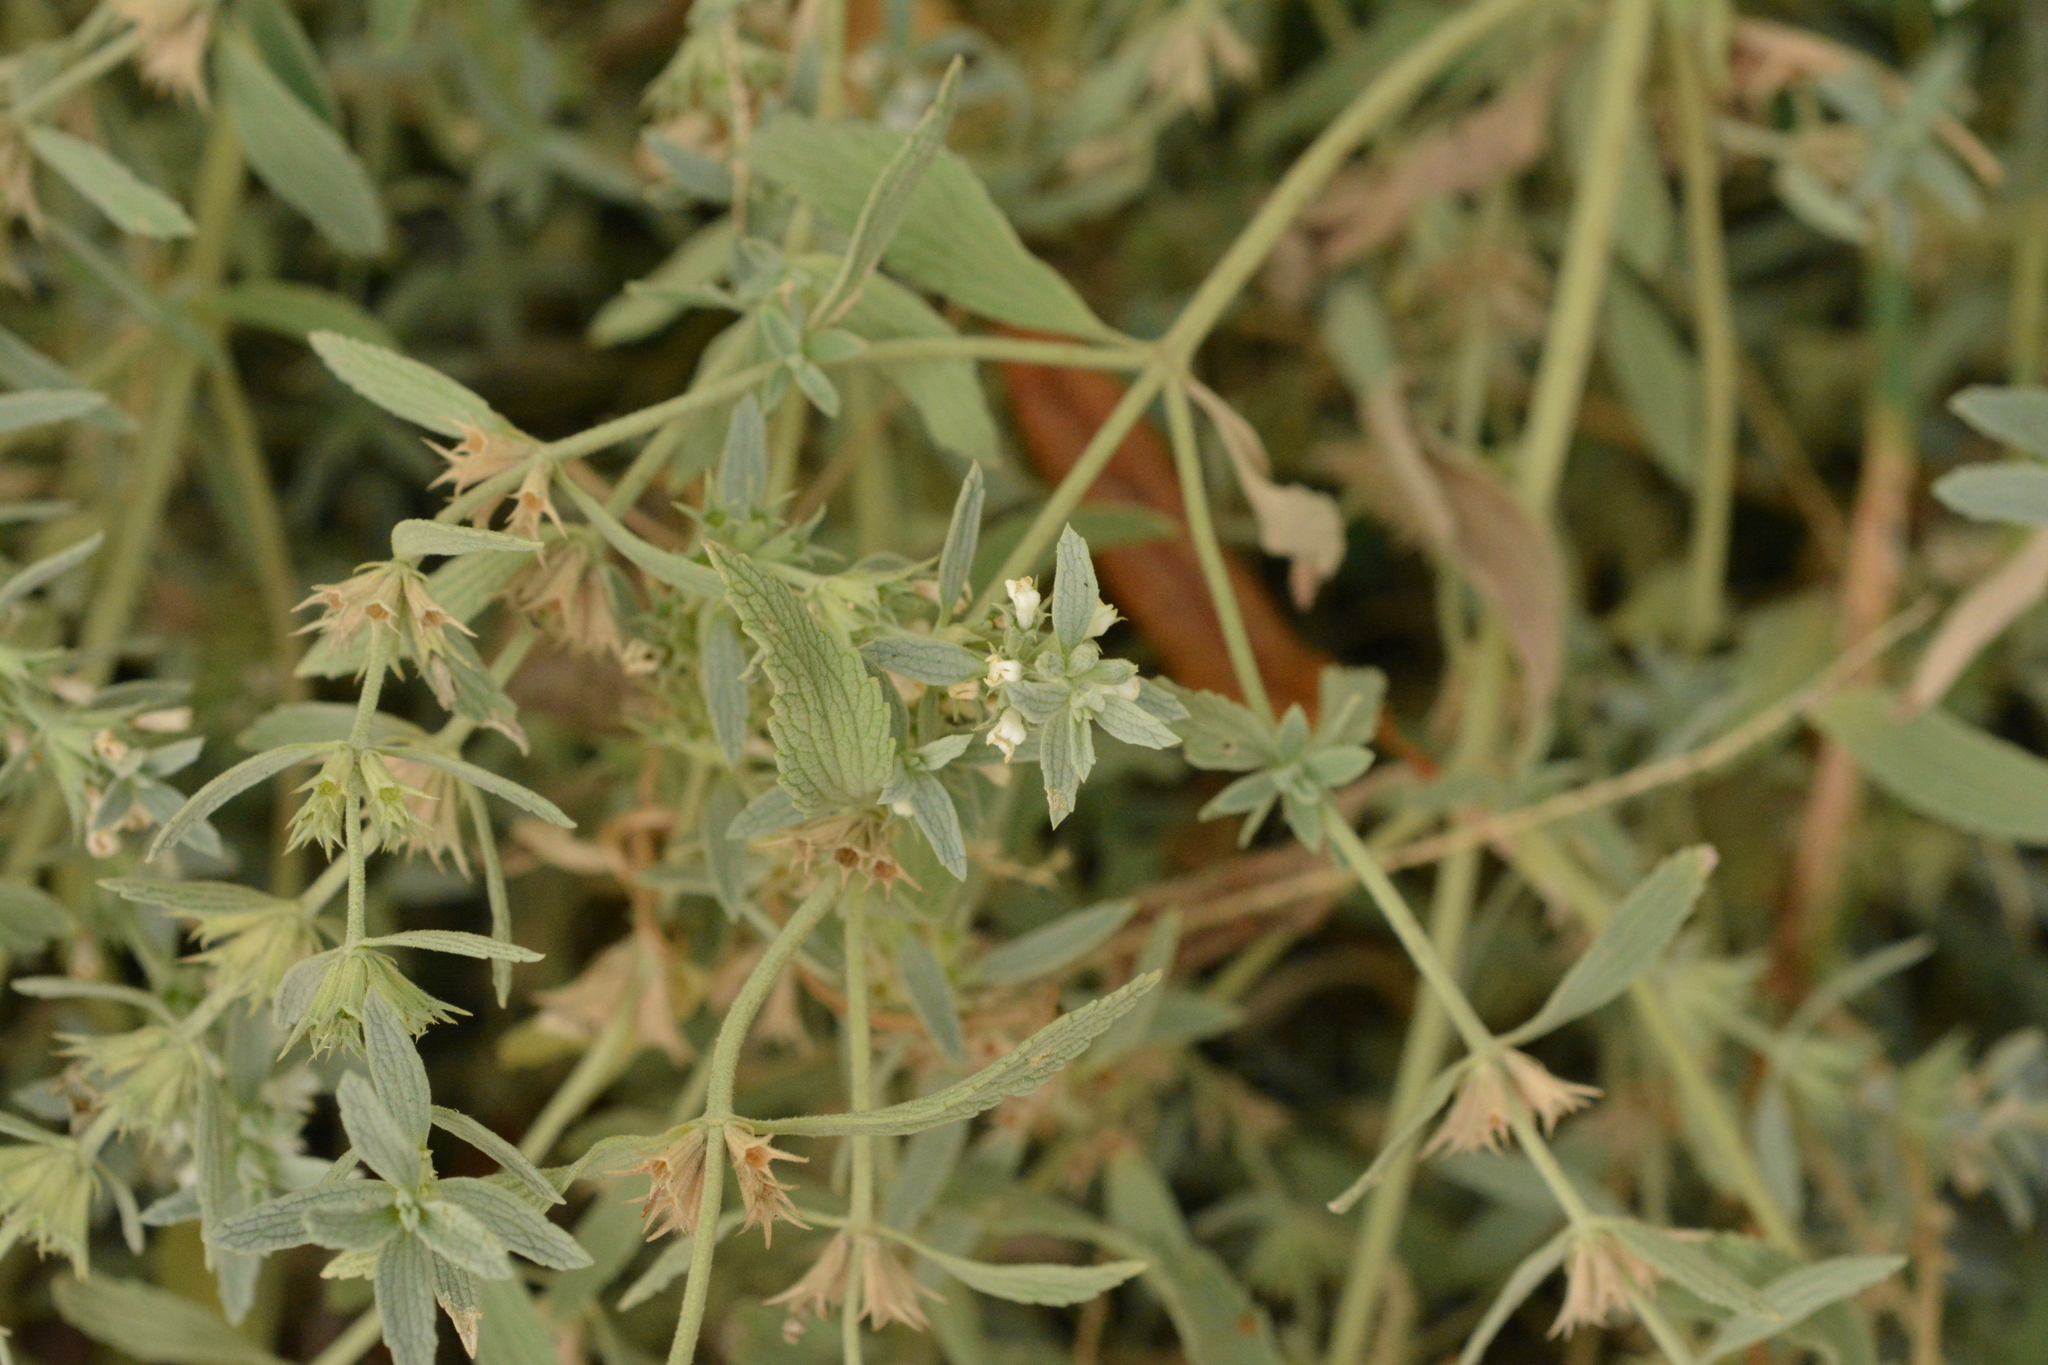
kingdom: Plantae
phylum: Tracheophyta
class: Magnoliopsida
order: Lamiales
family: Lamiaceae
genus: Marrubium
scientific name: Marrubium peregrinum
